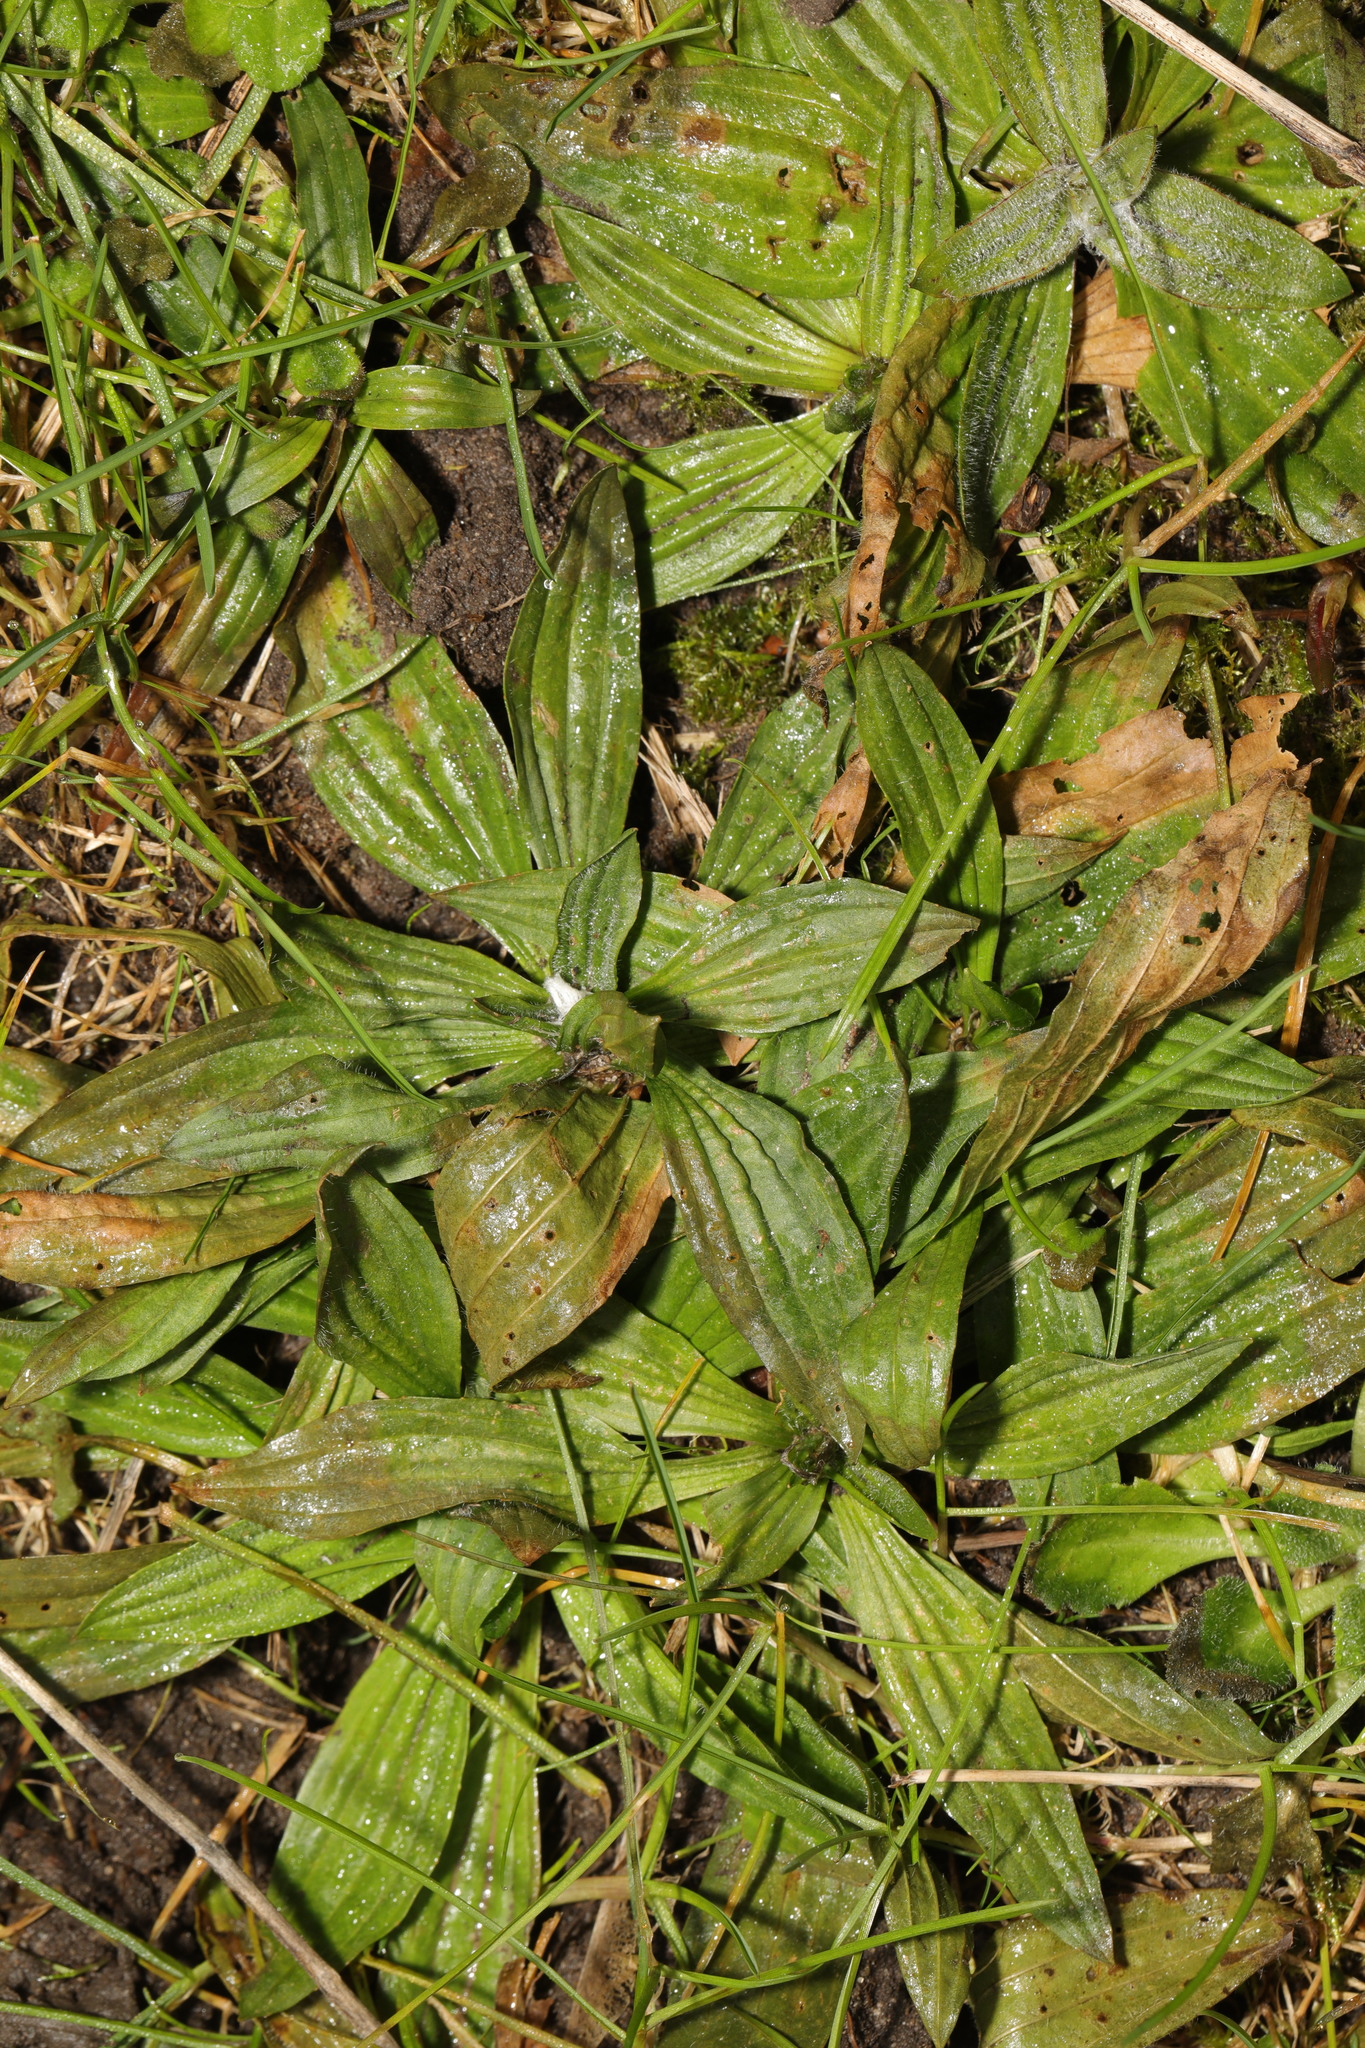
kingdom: Plantae
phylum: Tracheophyta
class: Magnoliopsida
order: Lamiales
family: Plantaginaceae
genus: Plantago
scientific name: Plantago lanceolata
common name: Ribwort plantain
